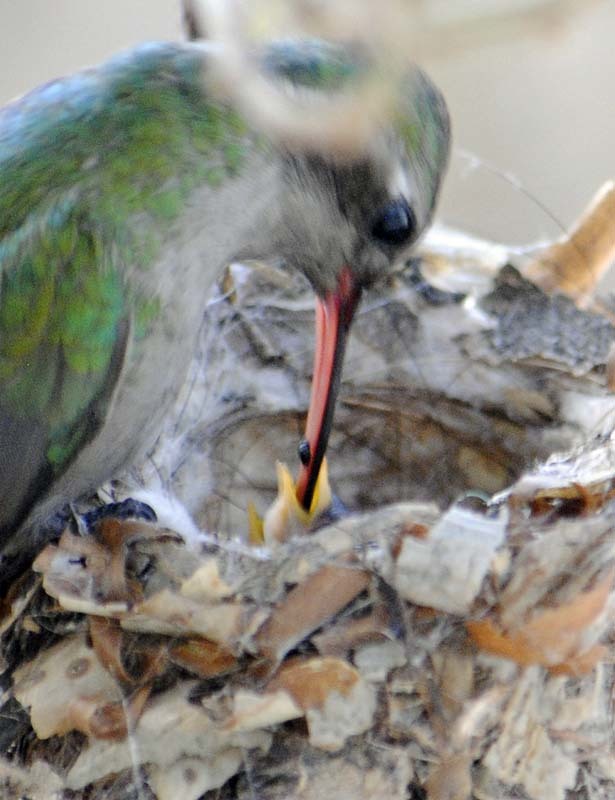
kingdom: Animalia
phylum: Chordata
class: Aves
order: Apodiformes
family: Trochilidae
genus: Cynanthus
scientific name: Cynanthus latirostris
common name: Broad-billed hummingbird
